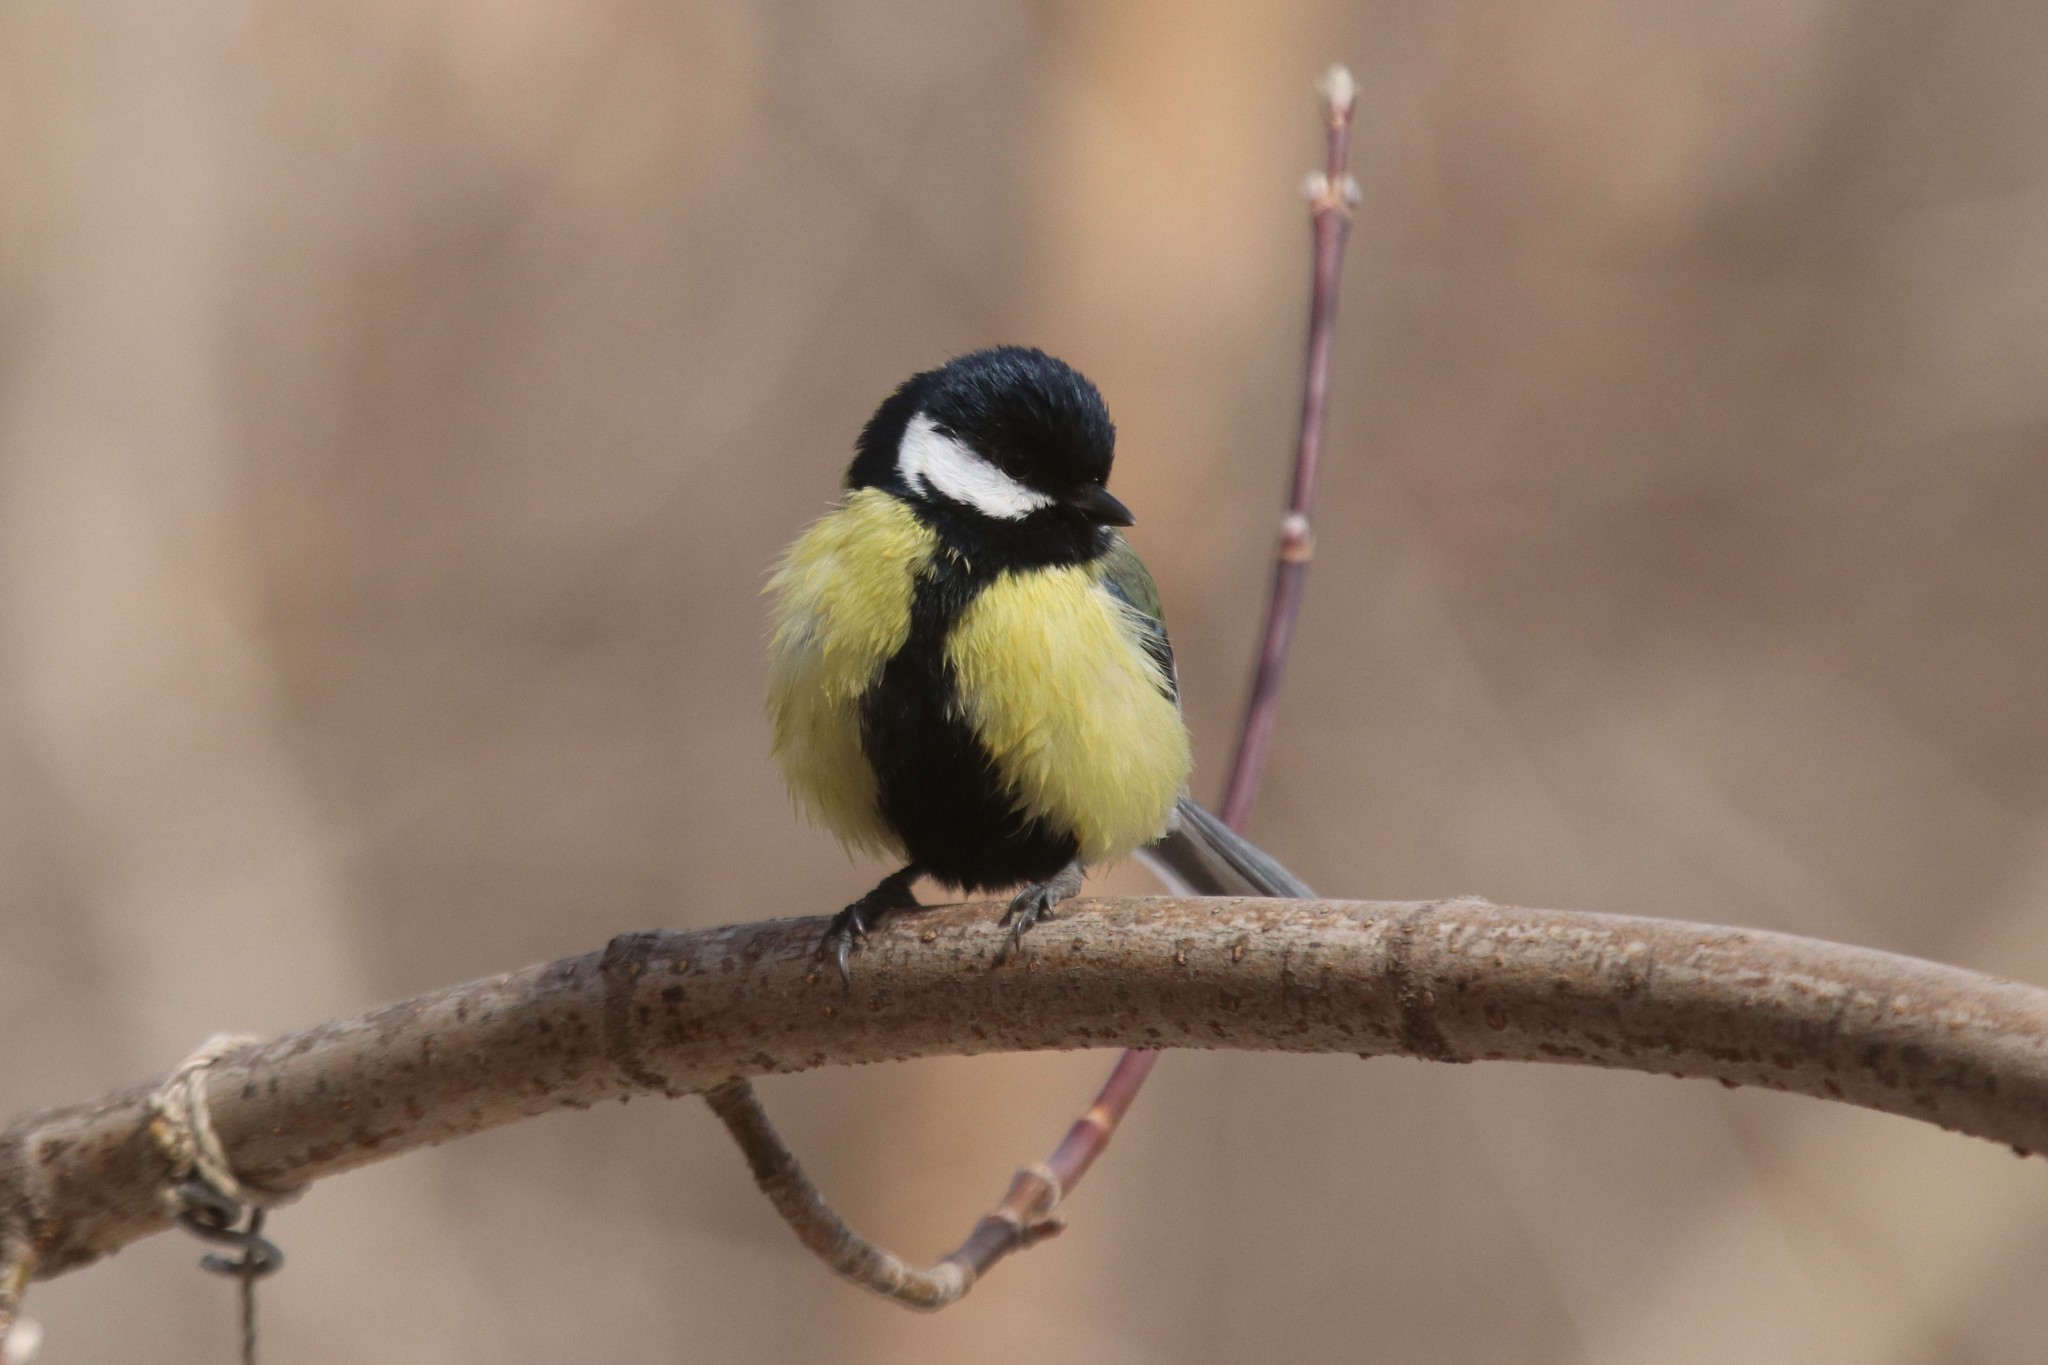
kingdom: Animalia
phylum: Chordata
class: Aves
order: Passeriformes
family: Paridae
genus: Parus
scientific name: Parus major
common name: Great tit
